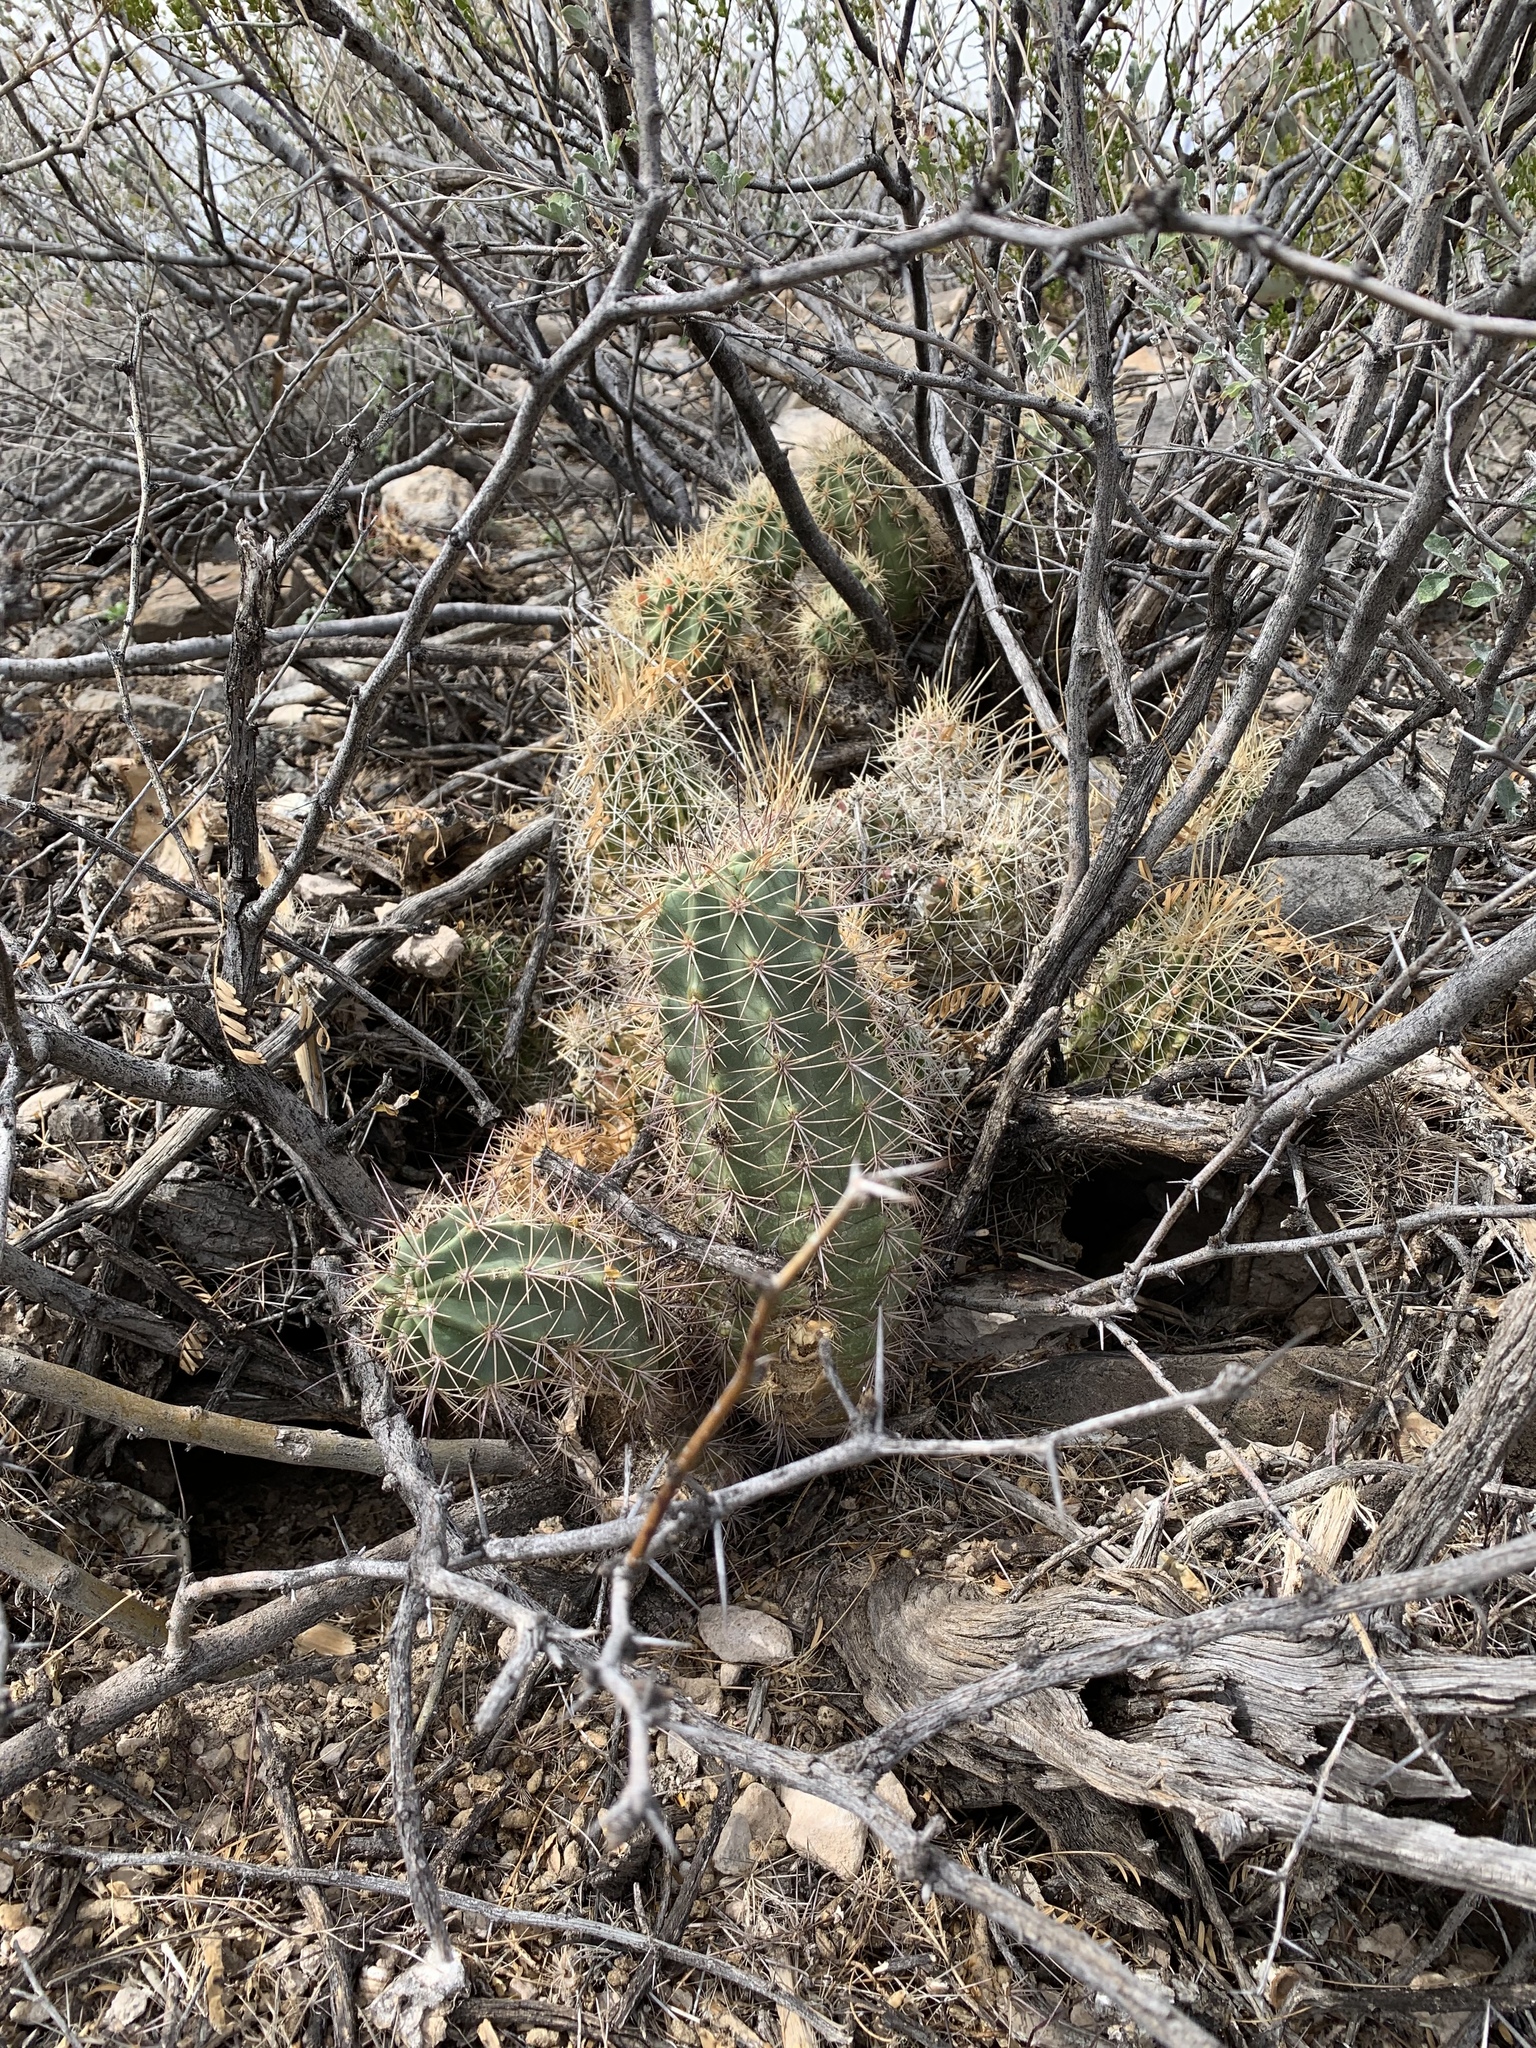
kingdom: Plantae
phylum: Tracheophyta
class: Magnoliopsida
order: Caryophyllales
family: Cactaceae
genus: Echinocereus
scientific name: Echinocereus coccineus
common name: Scarlet hedgehog cactus
